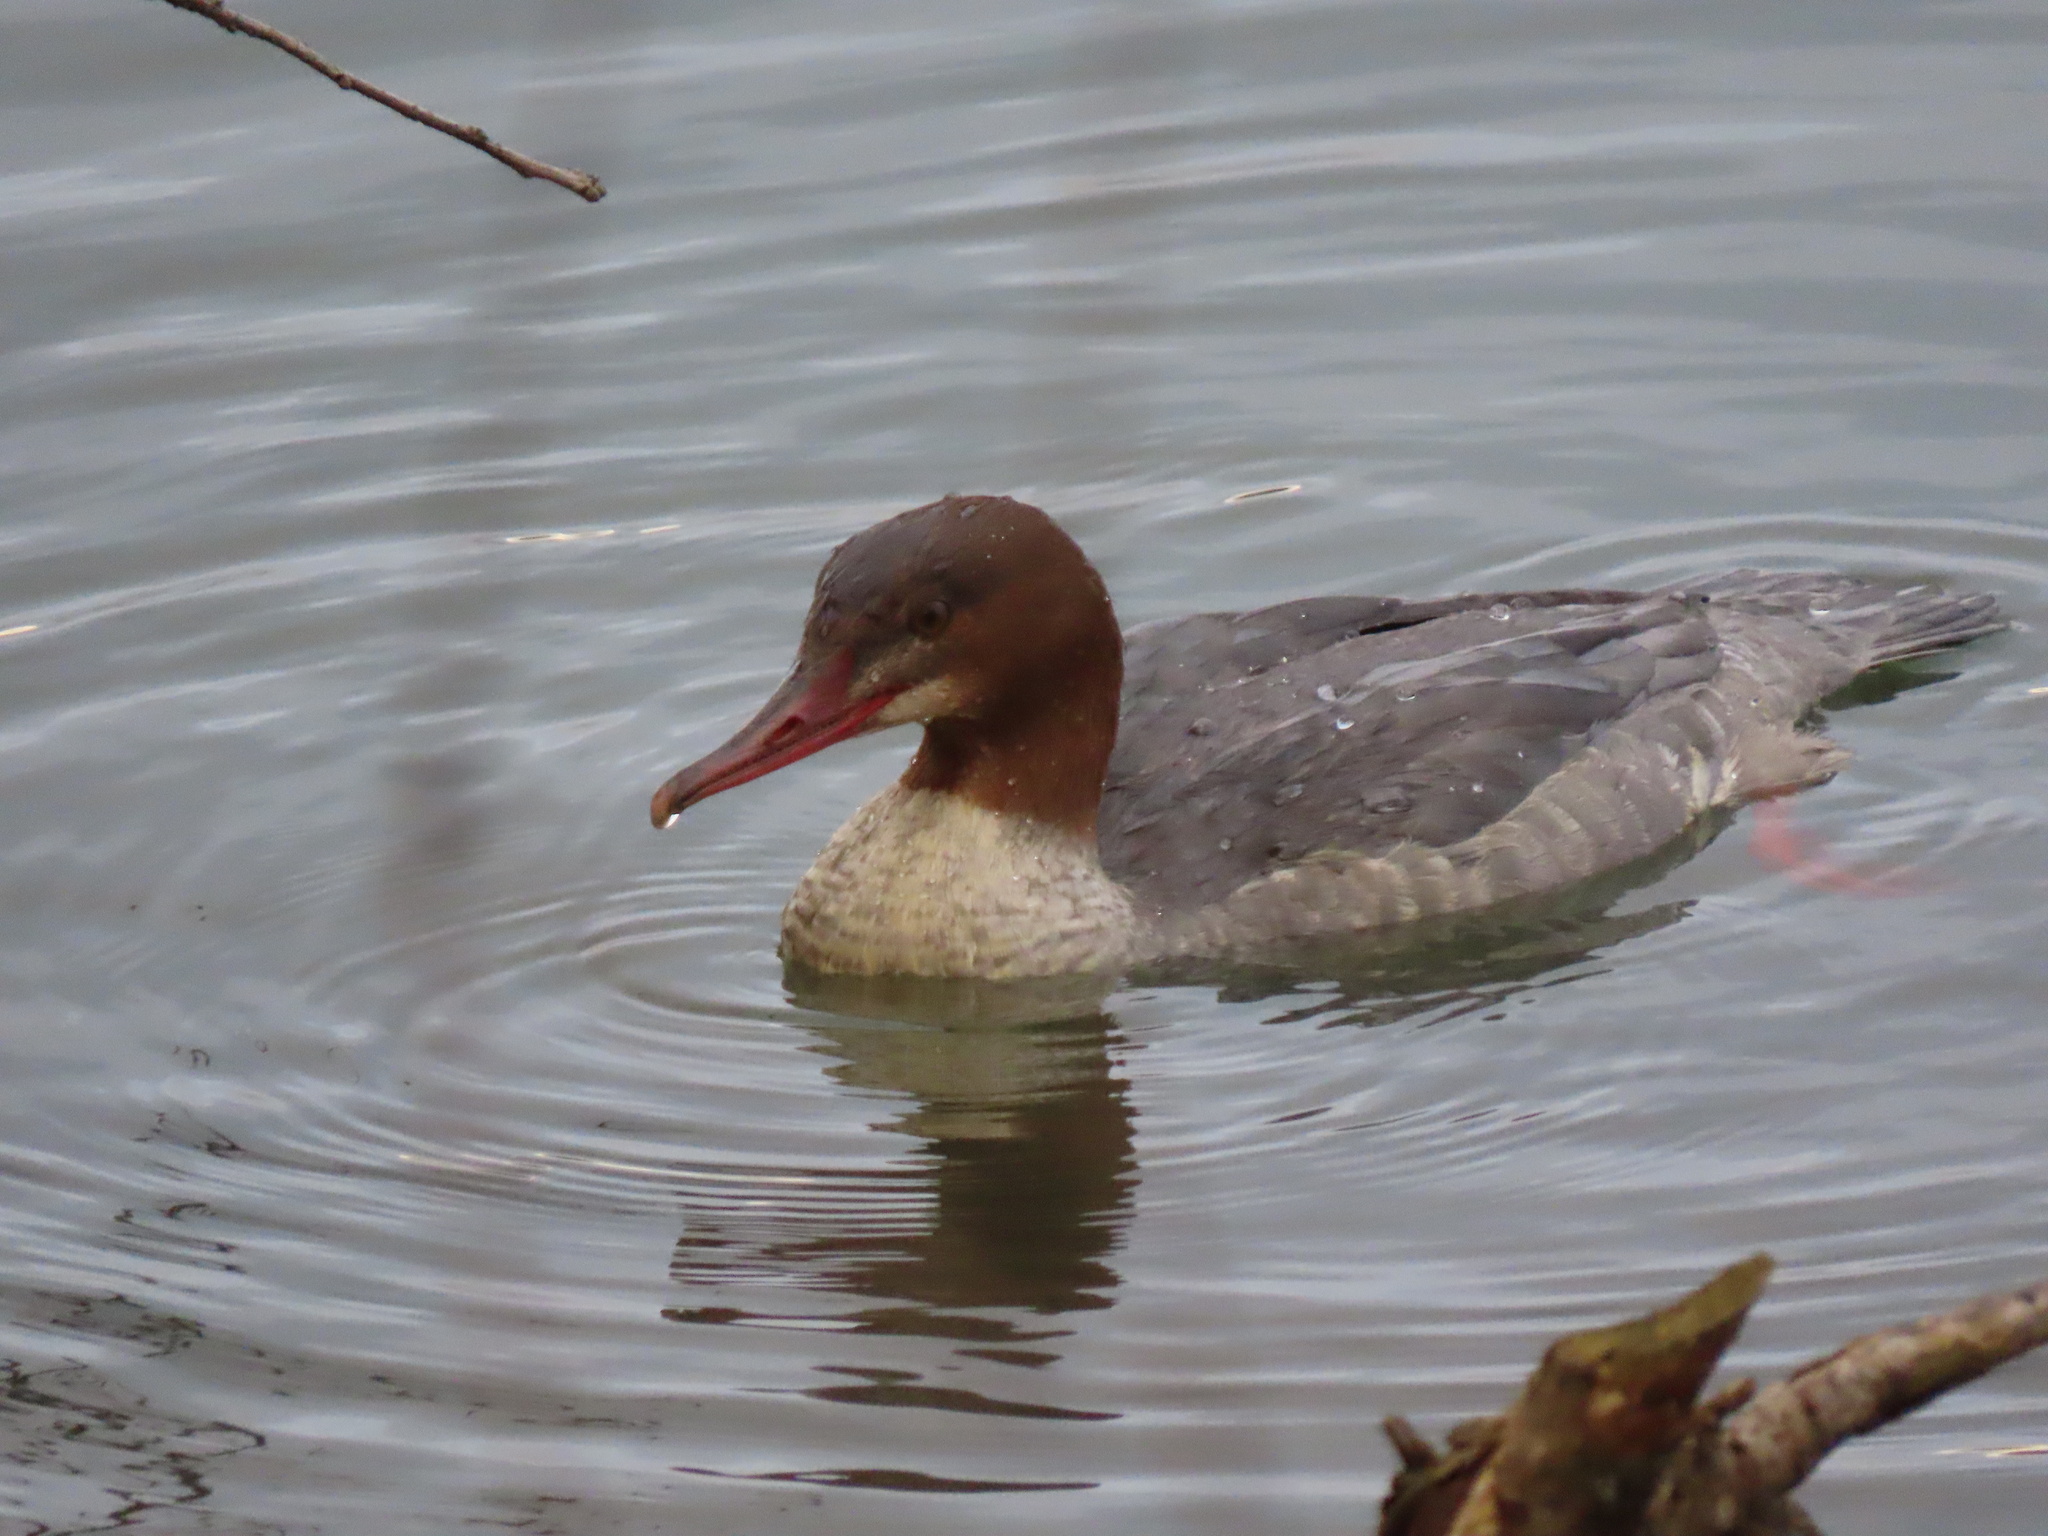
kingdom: Animalia
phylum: Chordata
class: Aves
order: Anseriformes
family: Anatidae
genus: Mergus
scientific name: Mergus merganser
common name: Common merganser
